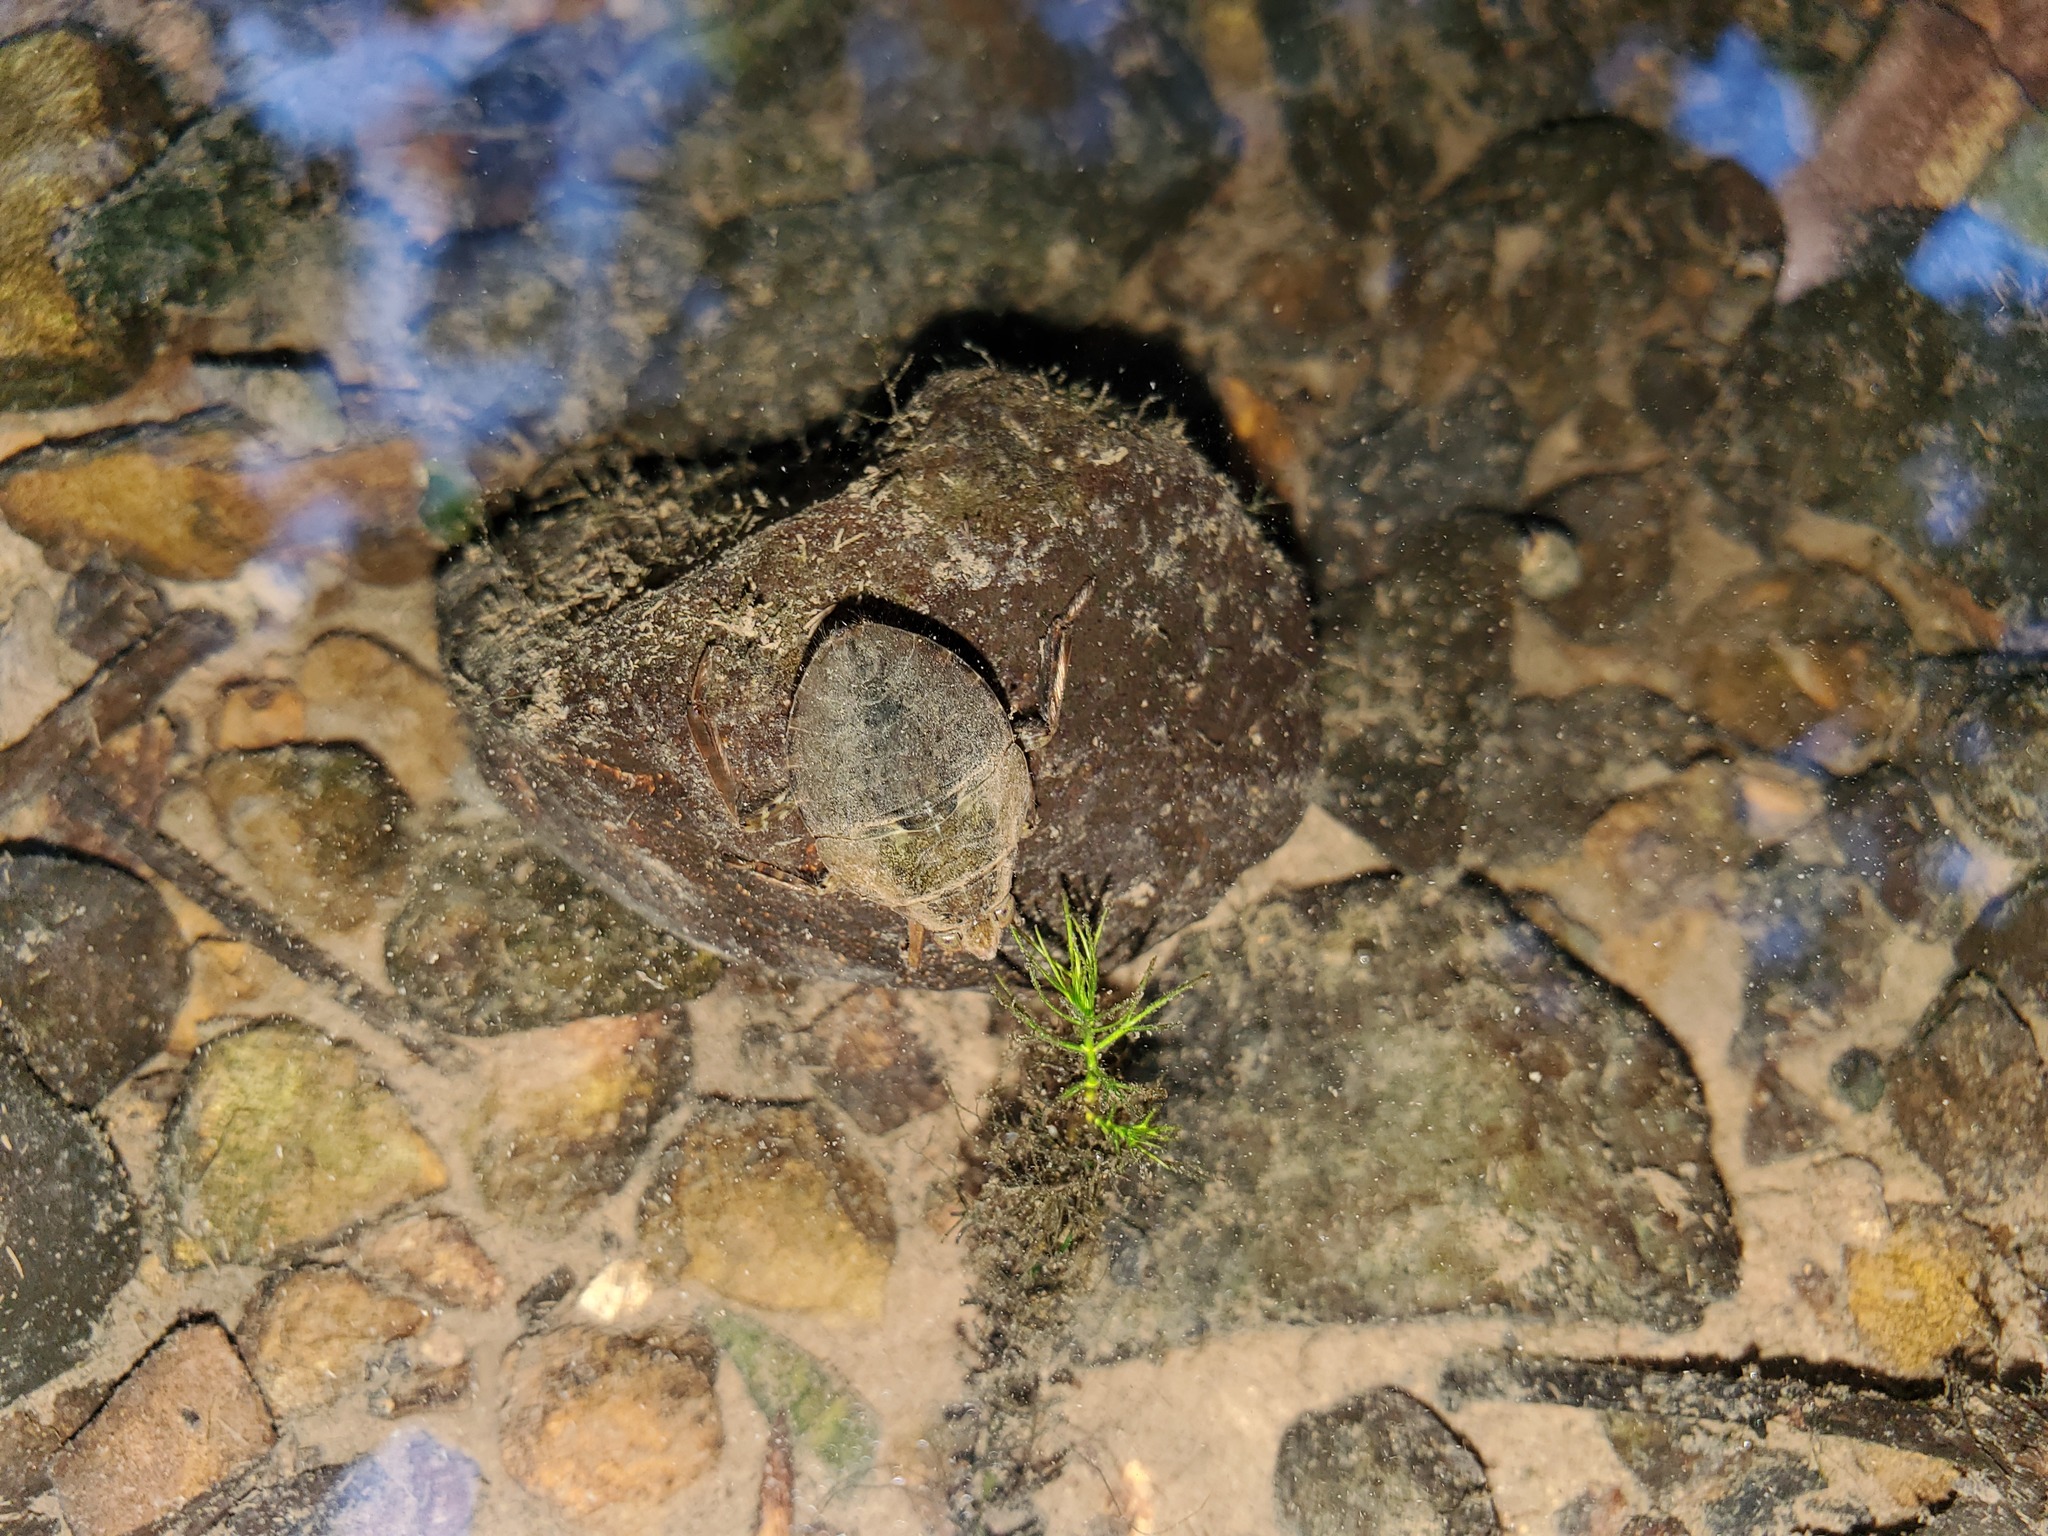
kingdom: Animalia
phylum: Arthropoda
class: Insecta
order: Hemiptera
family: Belostomatidae
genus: Belostoma
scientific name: Belostoma
